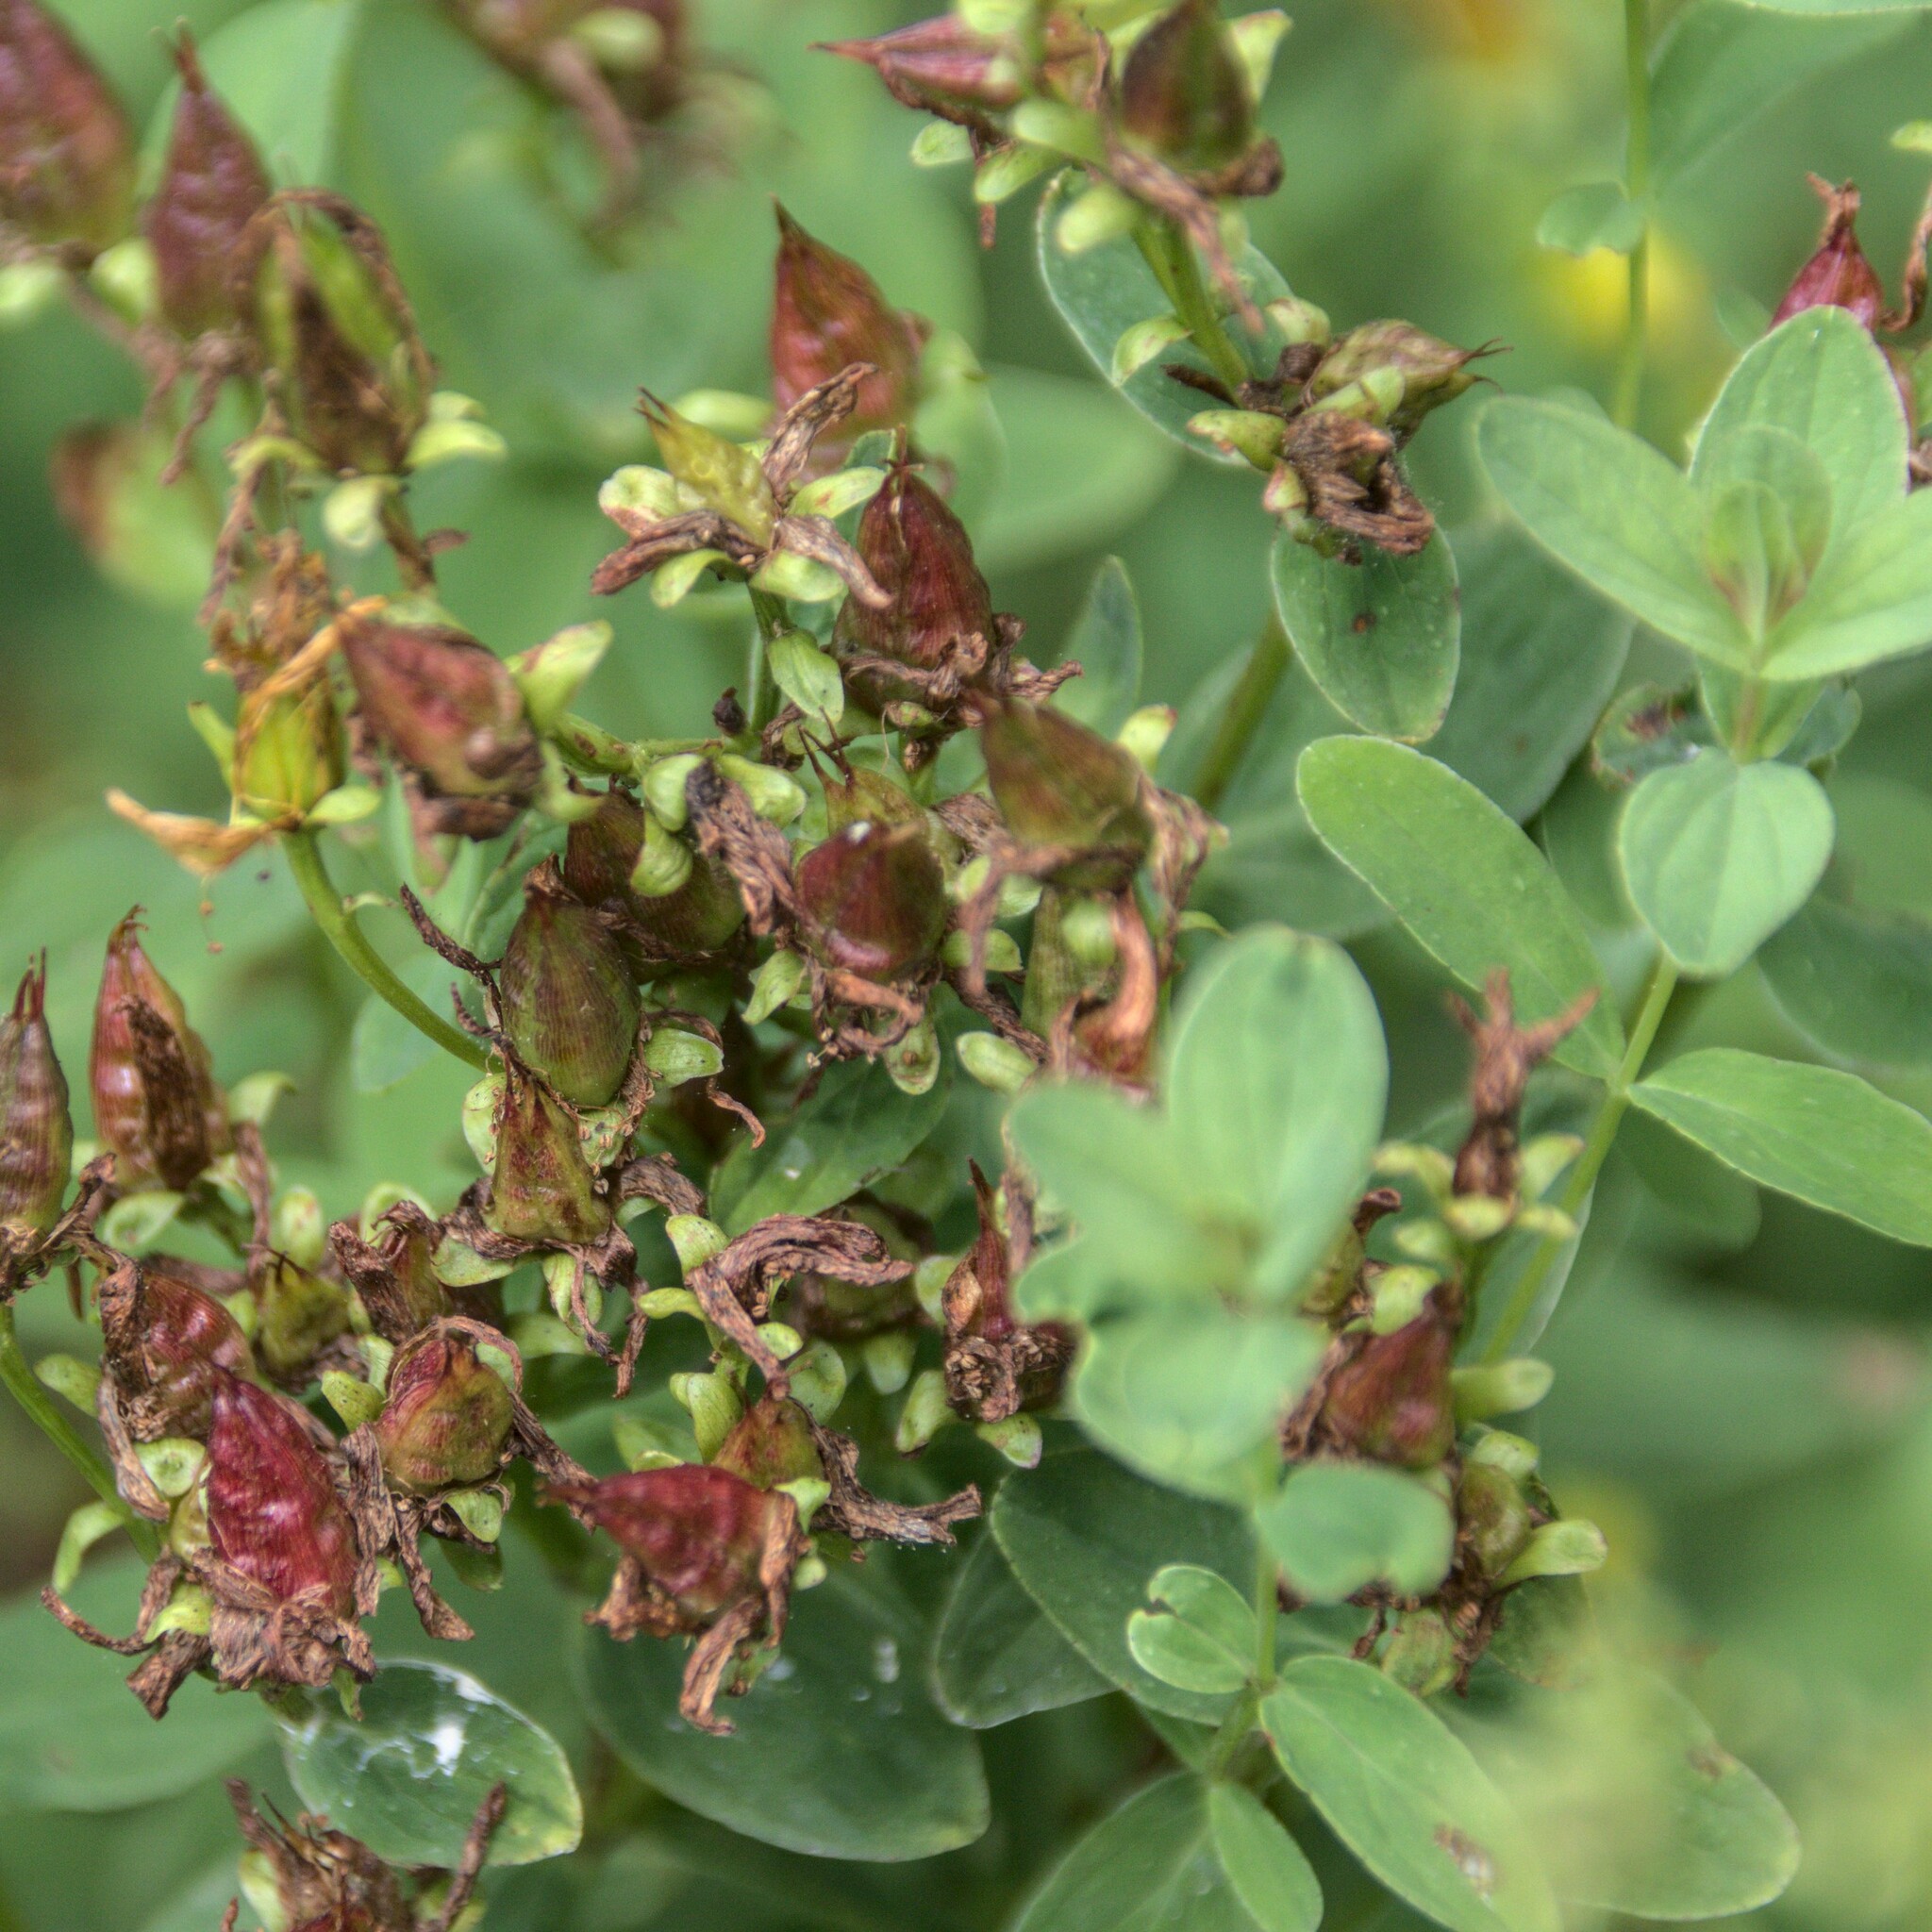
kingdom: Plantae
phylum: Tracheophyta
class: Magnoliopsida
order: Malpighiales
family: Hypericaceae
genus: Hypericum
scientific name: Hypericum maculatum
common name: Imperforate st. john's-wort
